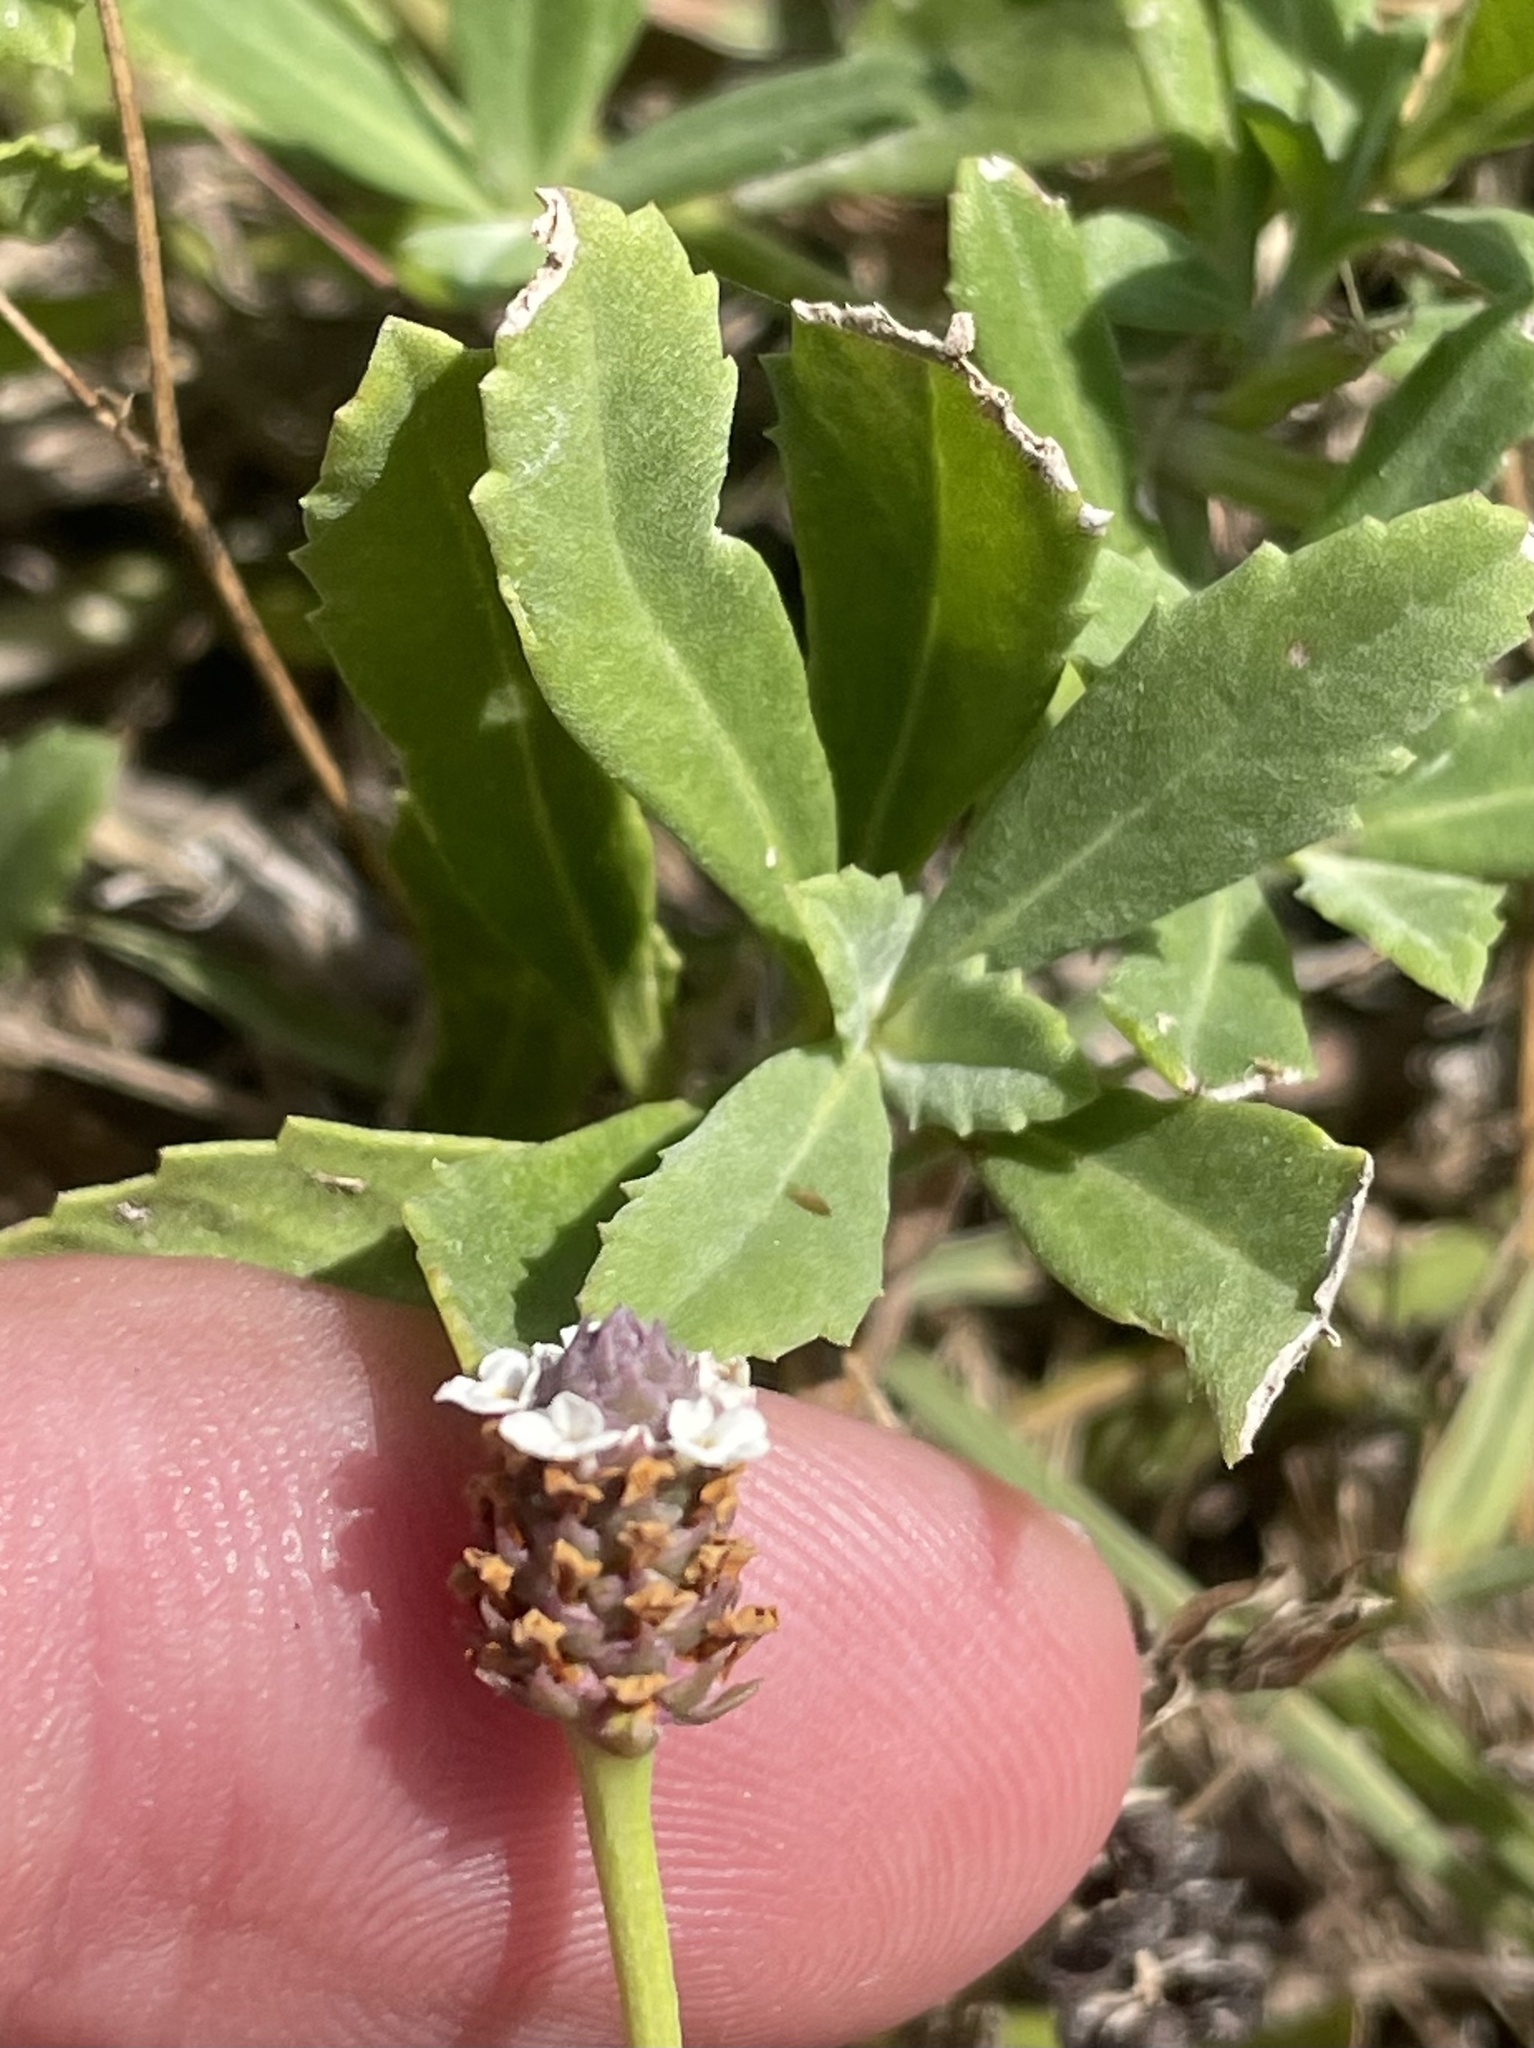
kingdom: Plantae
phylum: Tracheophyta
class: Magnoliopsida
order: Lamiales
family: Verbenaceae
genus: Phyla
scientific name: Phyla nodiflora
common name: Frogfruit
